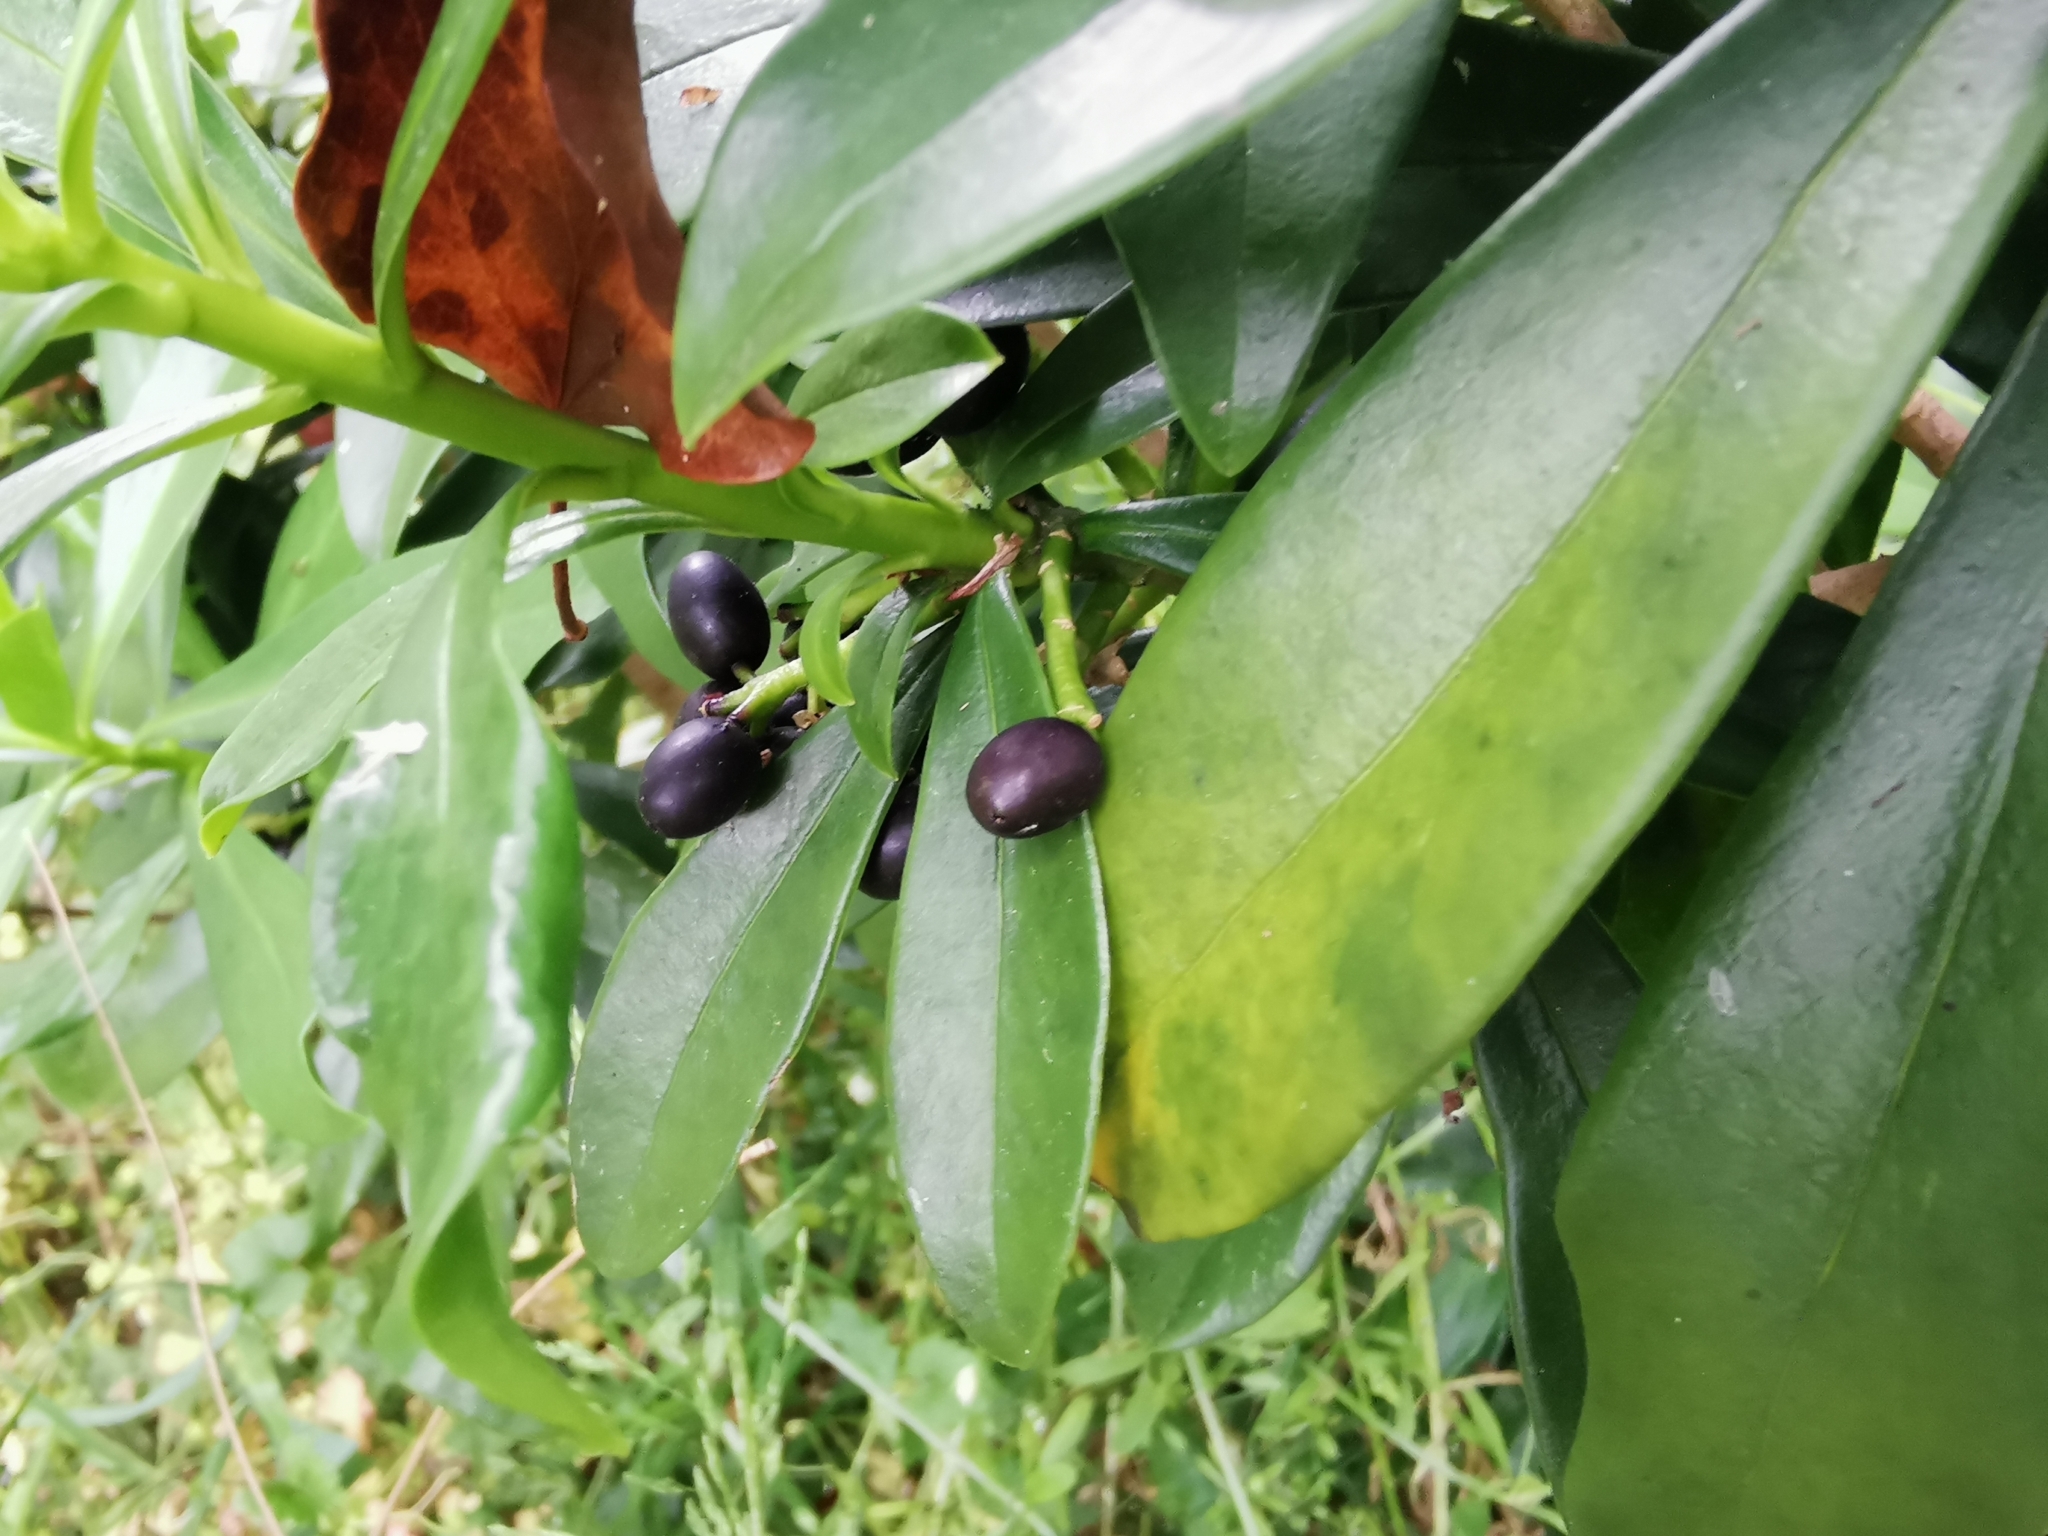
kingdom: Plantae
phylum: Tracheophyta
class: Magnoliopsida
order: Malvales
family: Thymelaeaceae
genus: Daphne
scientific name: Daphne laureola
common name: Spurge-laurel
